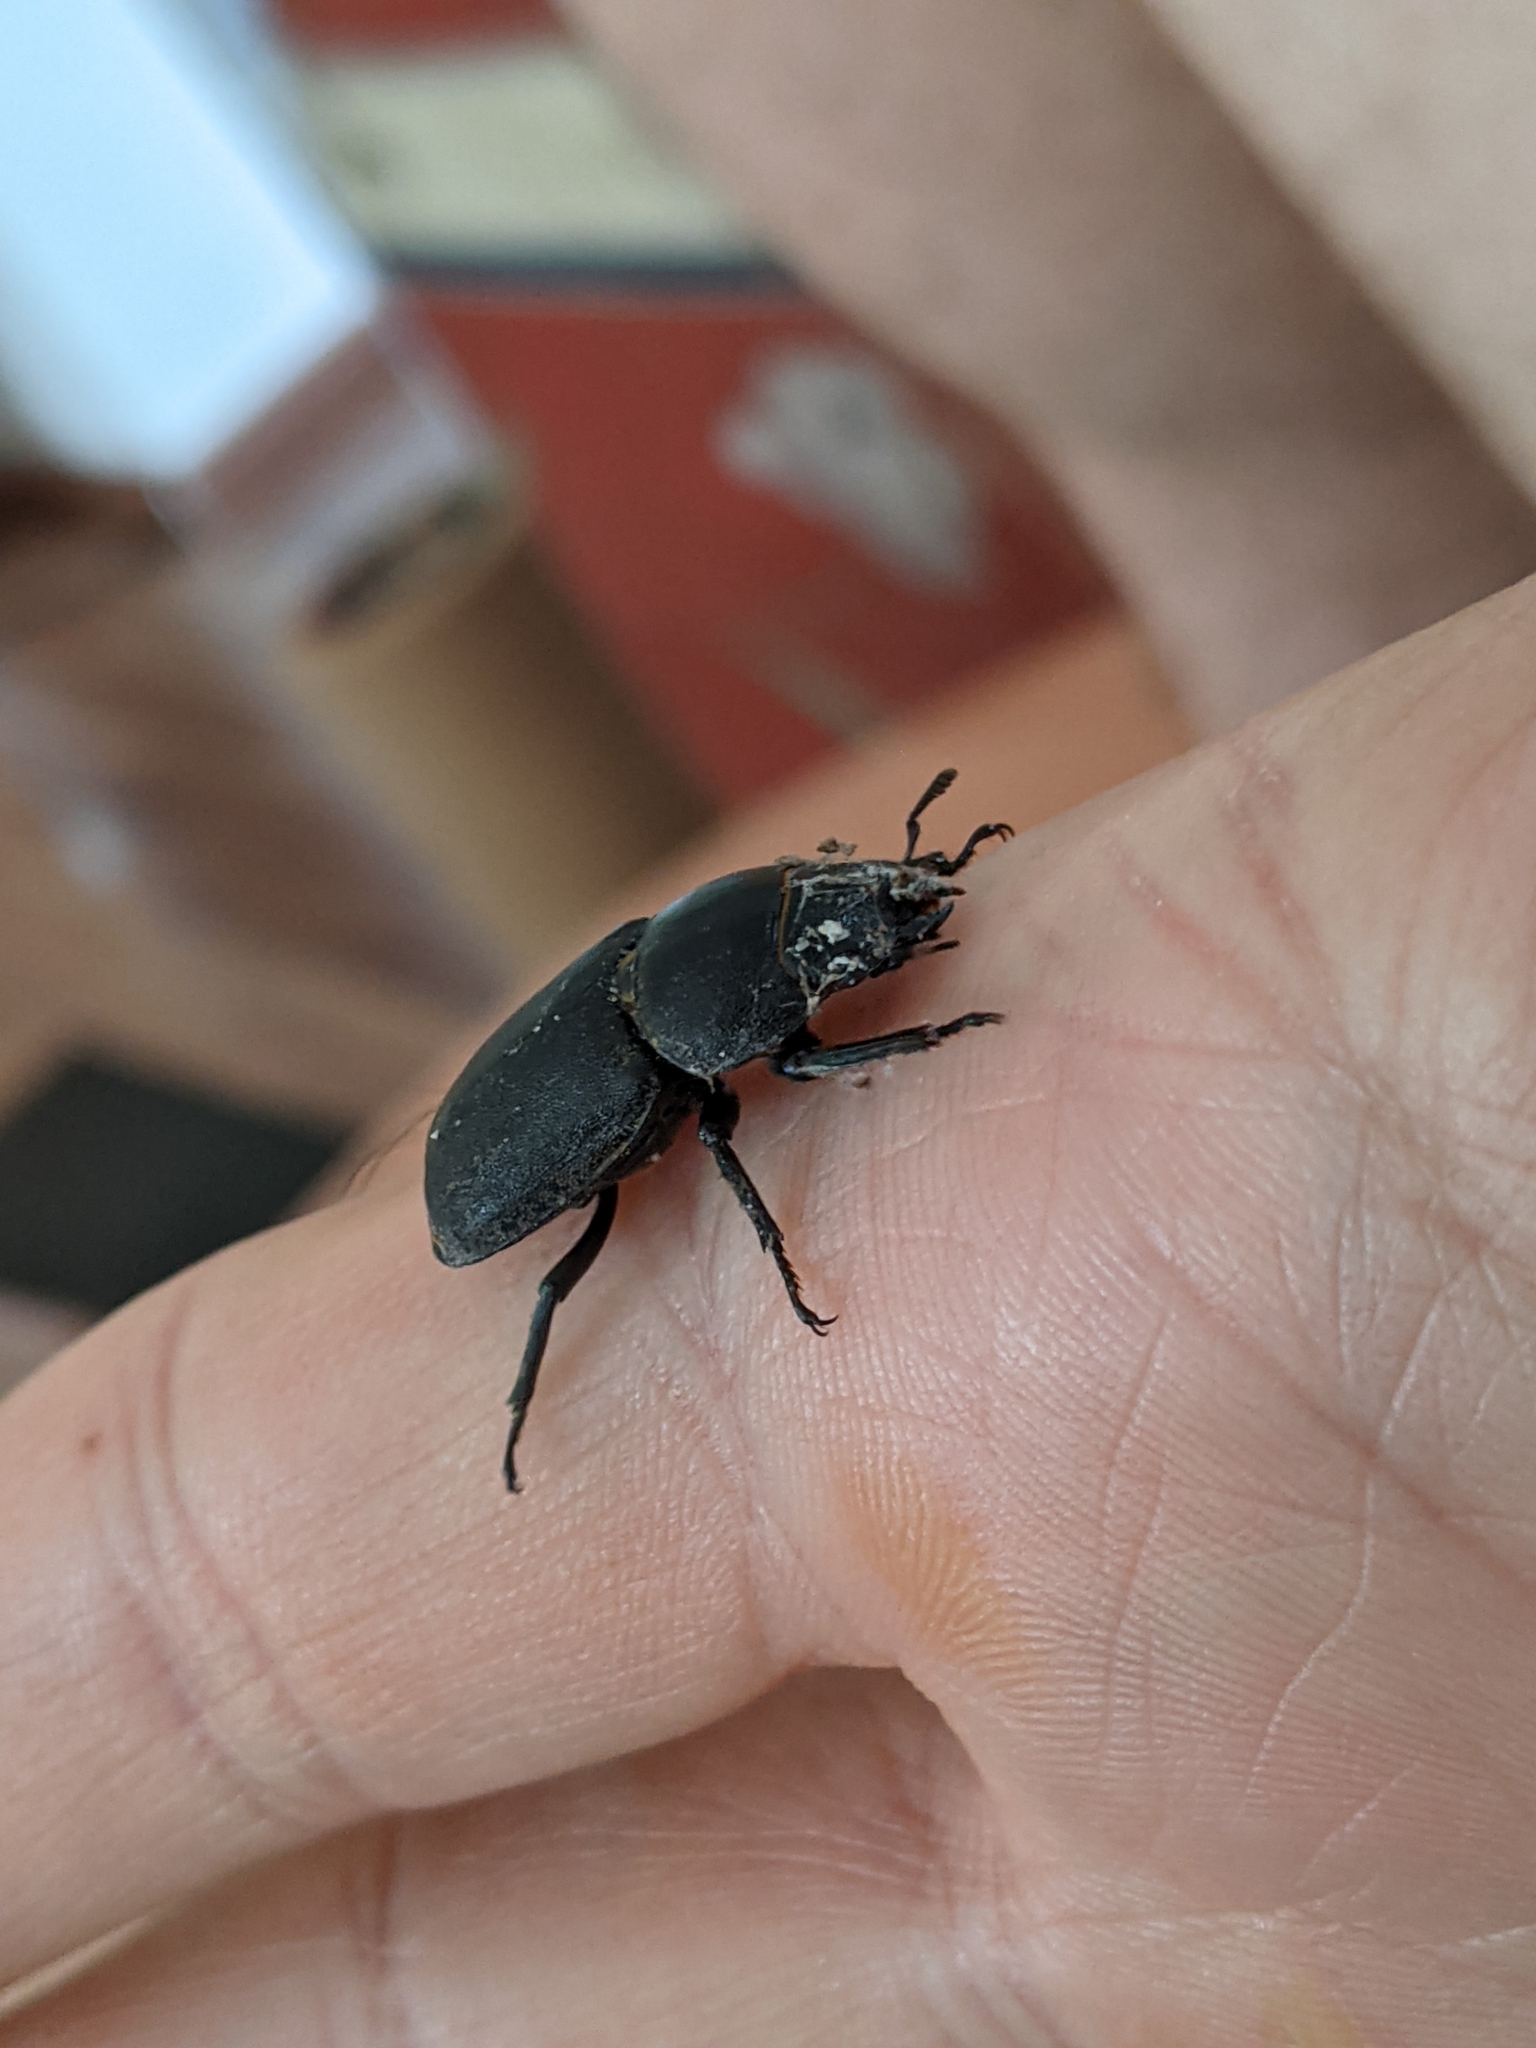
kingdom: Animalia
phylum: Arthropoda
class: Insecta
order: Coleoptera
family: Lucanidae
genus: Dorcus
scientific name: Dorcus parallelipipedus
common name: Lesser stag beetle
